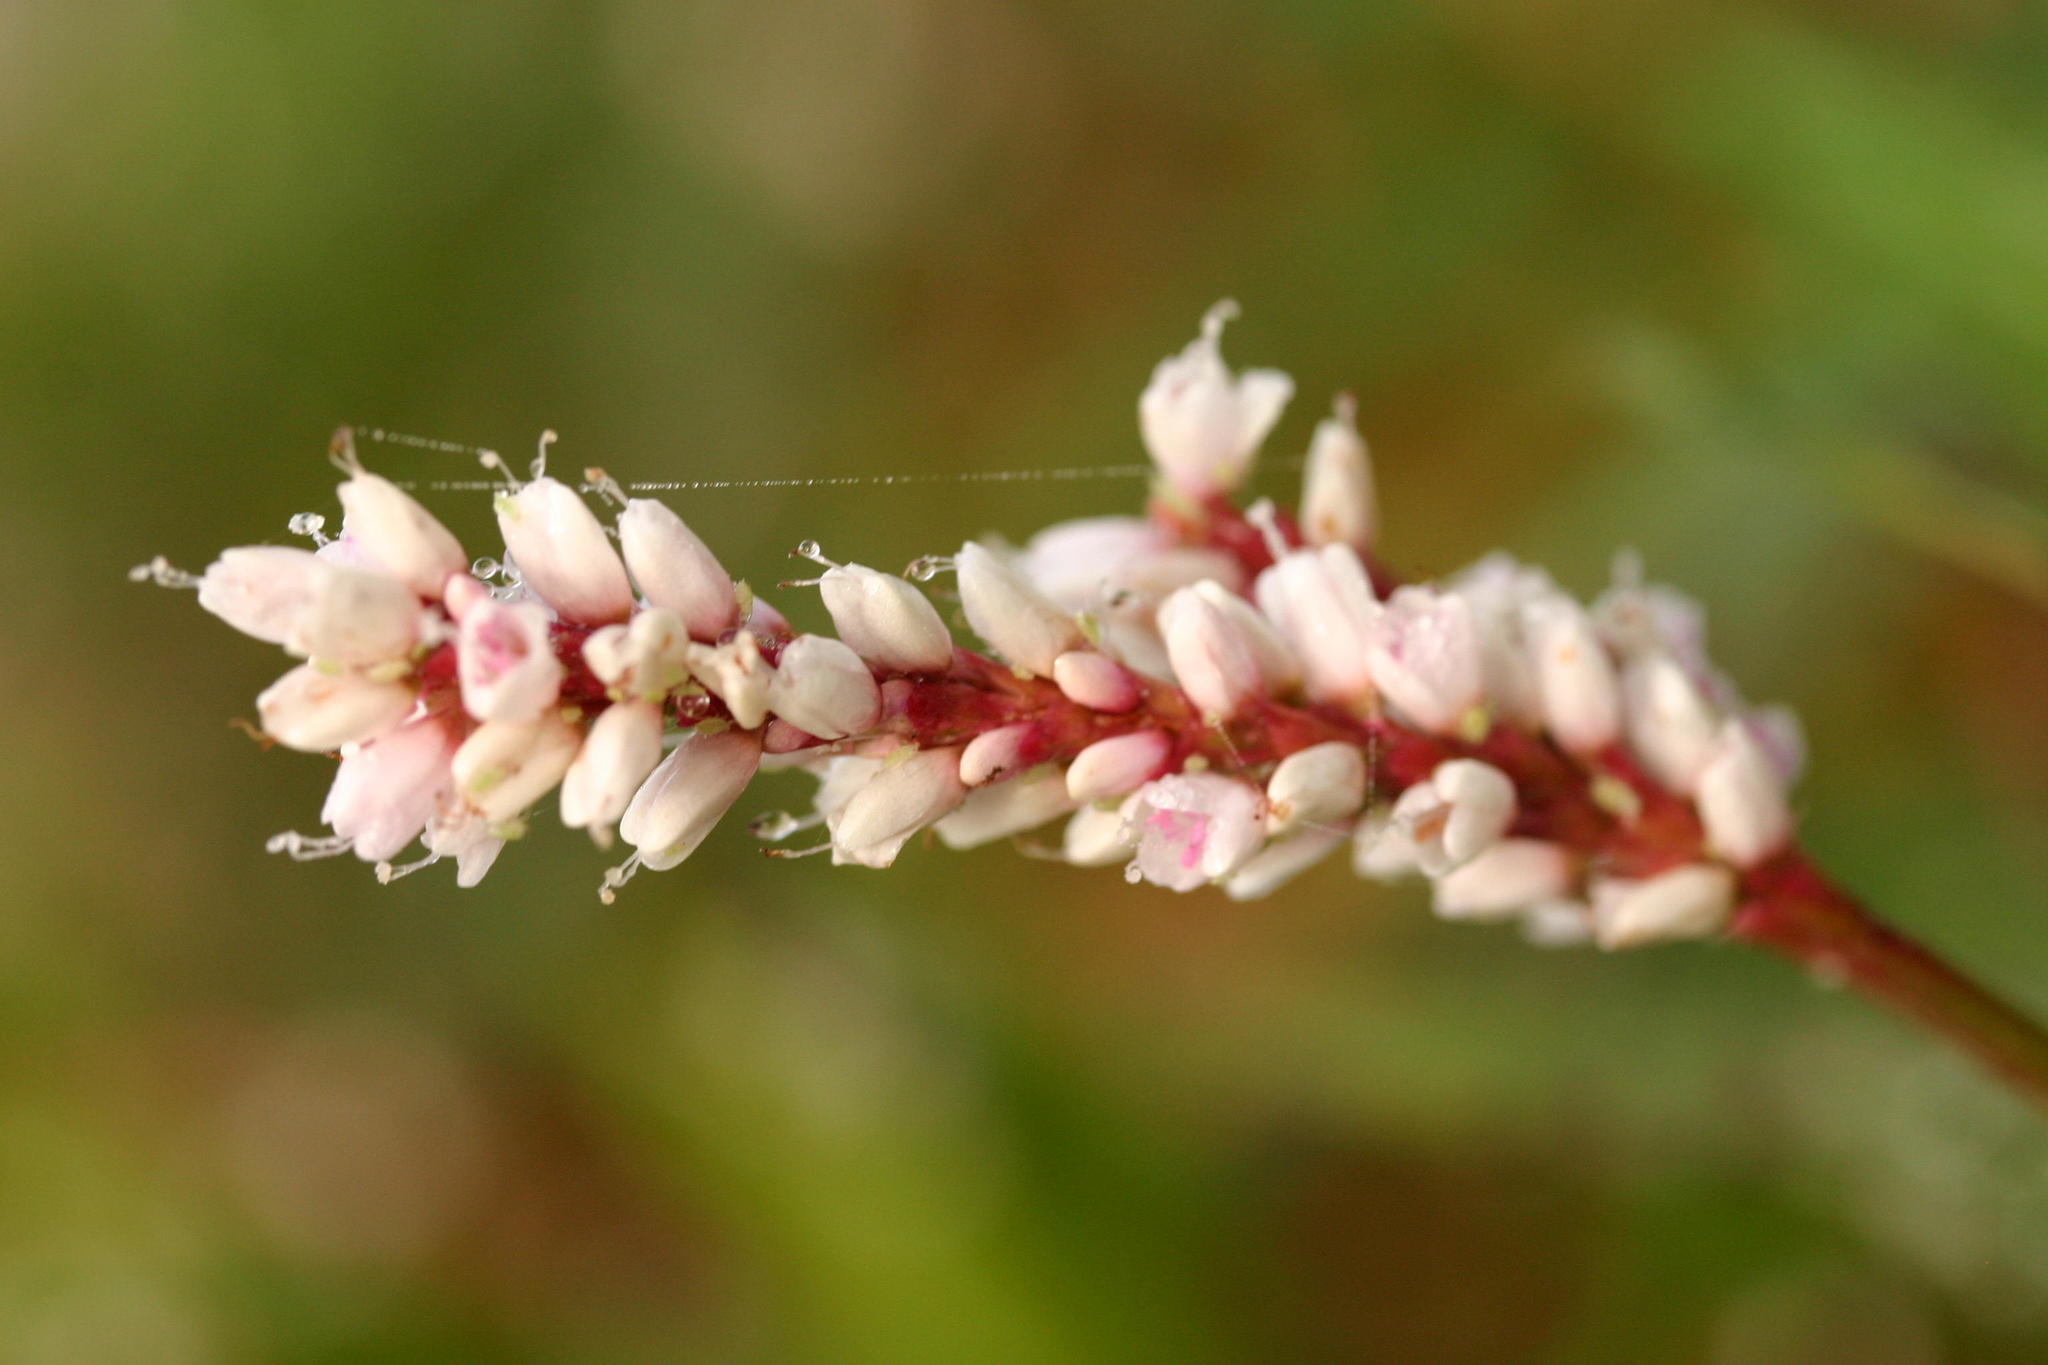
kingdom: Plantae
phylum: Tracheophyta
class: Magnoliopsida
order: Caryophyllales
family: Polygonaceae
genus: Persicaria
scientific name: Persicaria madagascariensis
